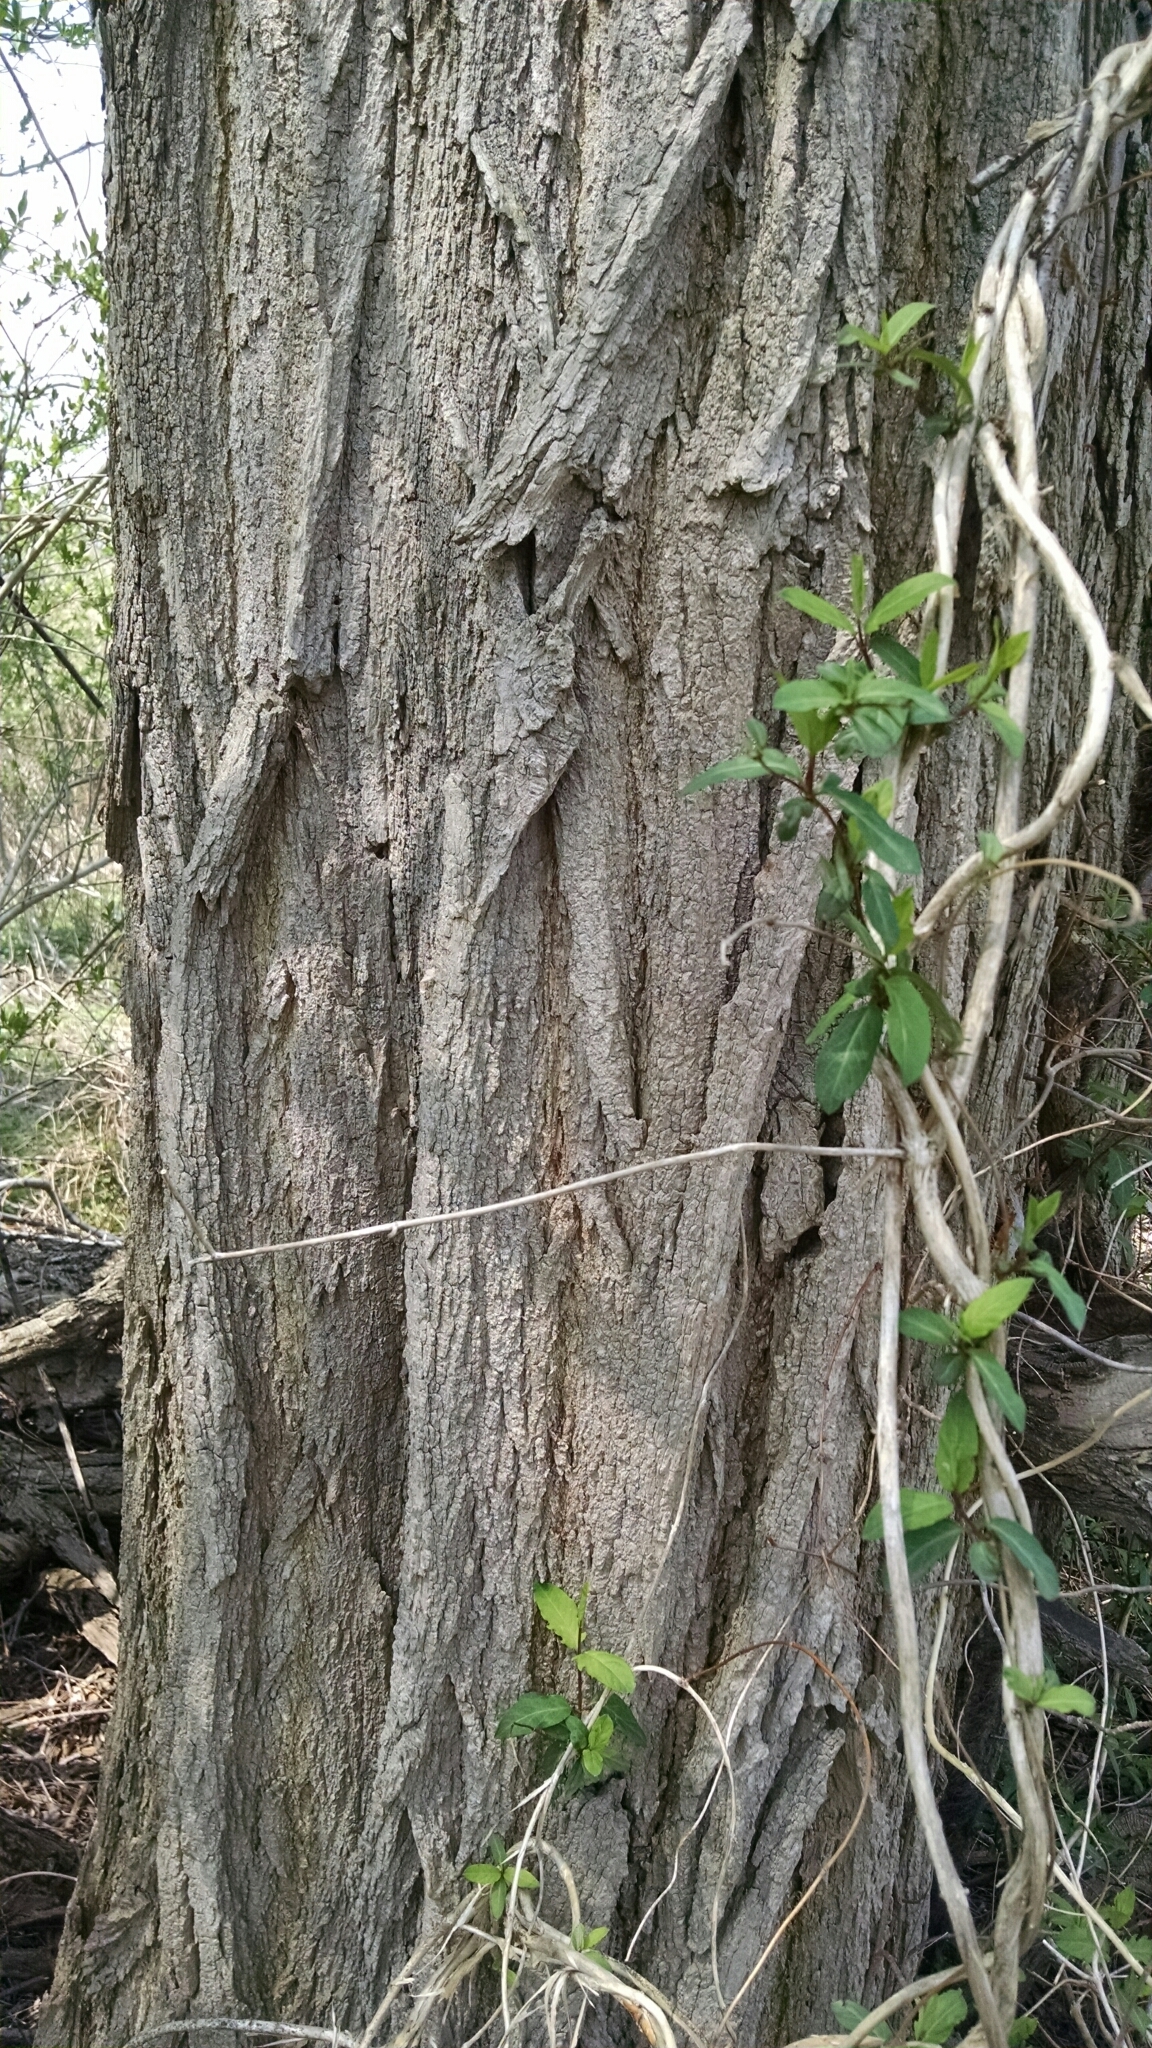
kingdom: Plantae
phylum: Tracheophyta
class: Magnoliopsida
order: Fabales
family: Fabaceae
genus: Robinia
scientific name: Robinia pseudoacacia
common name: Black locust
